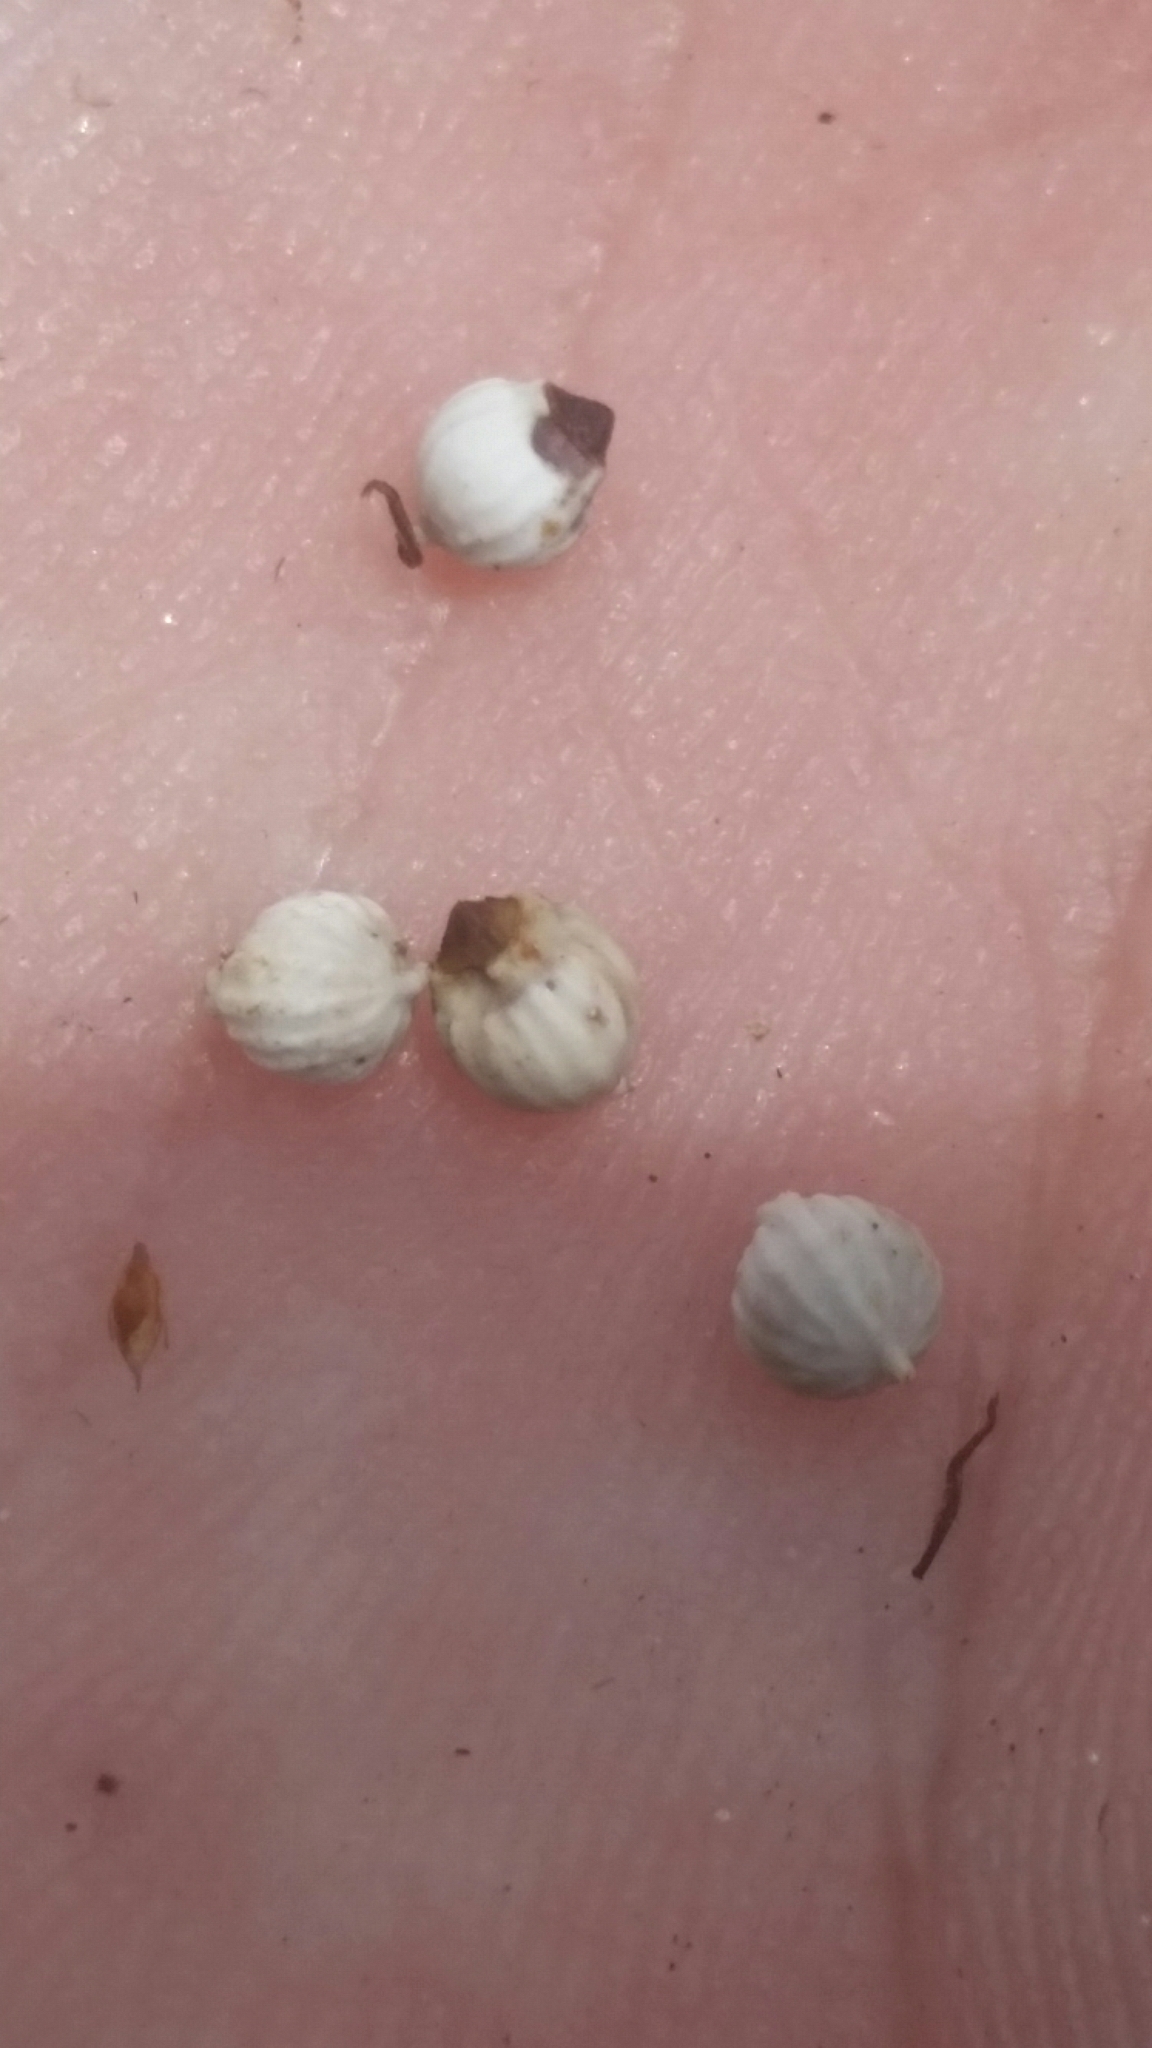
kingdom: Plantae
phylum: Tracheophyta
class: Liliopsida
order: Poales
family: Cyperaceae
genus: Scleria
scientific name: Scleria baldwinii
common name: Baldwin's nutrush
